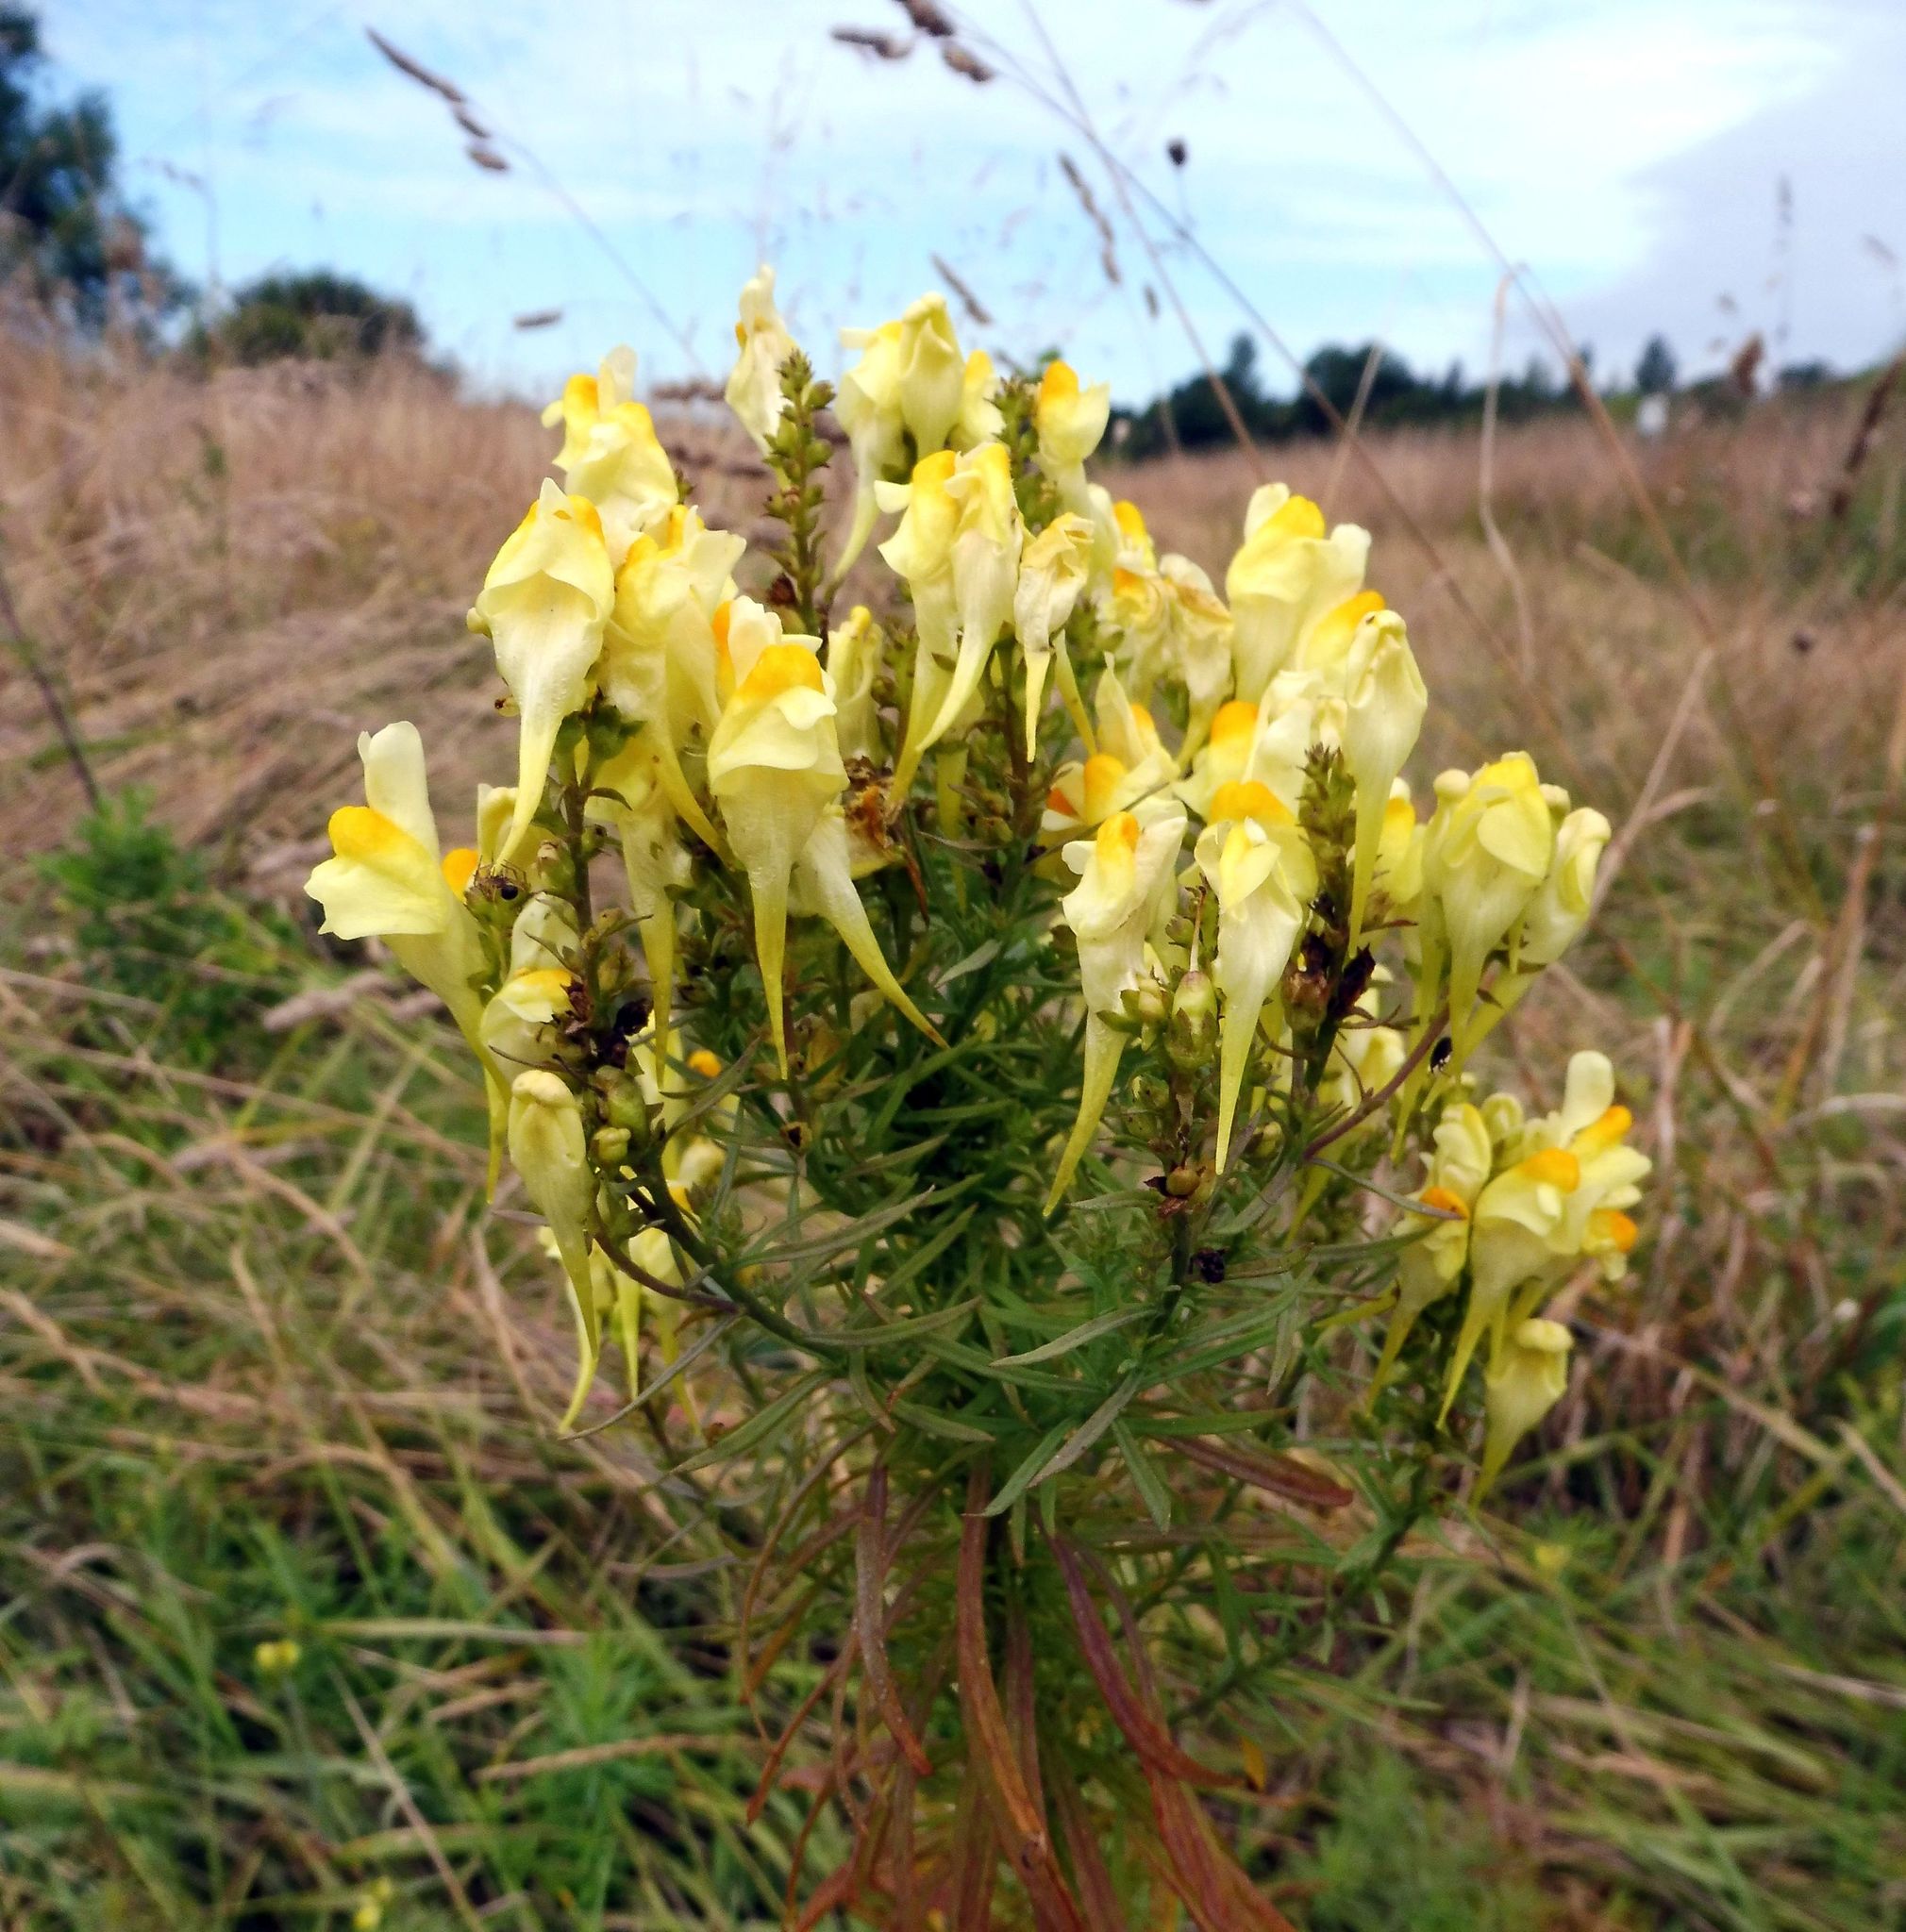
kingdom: Plantae
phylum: Tracheophyta
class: Magnoliopsida
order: Lamiales
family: Plantaginaceae
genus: Linaria
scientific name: Linaria vulgaris
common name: Butter and eggs
